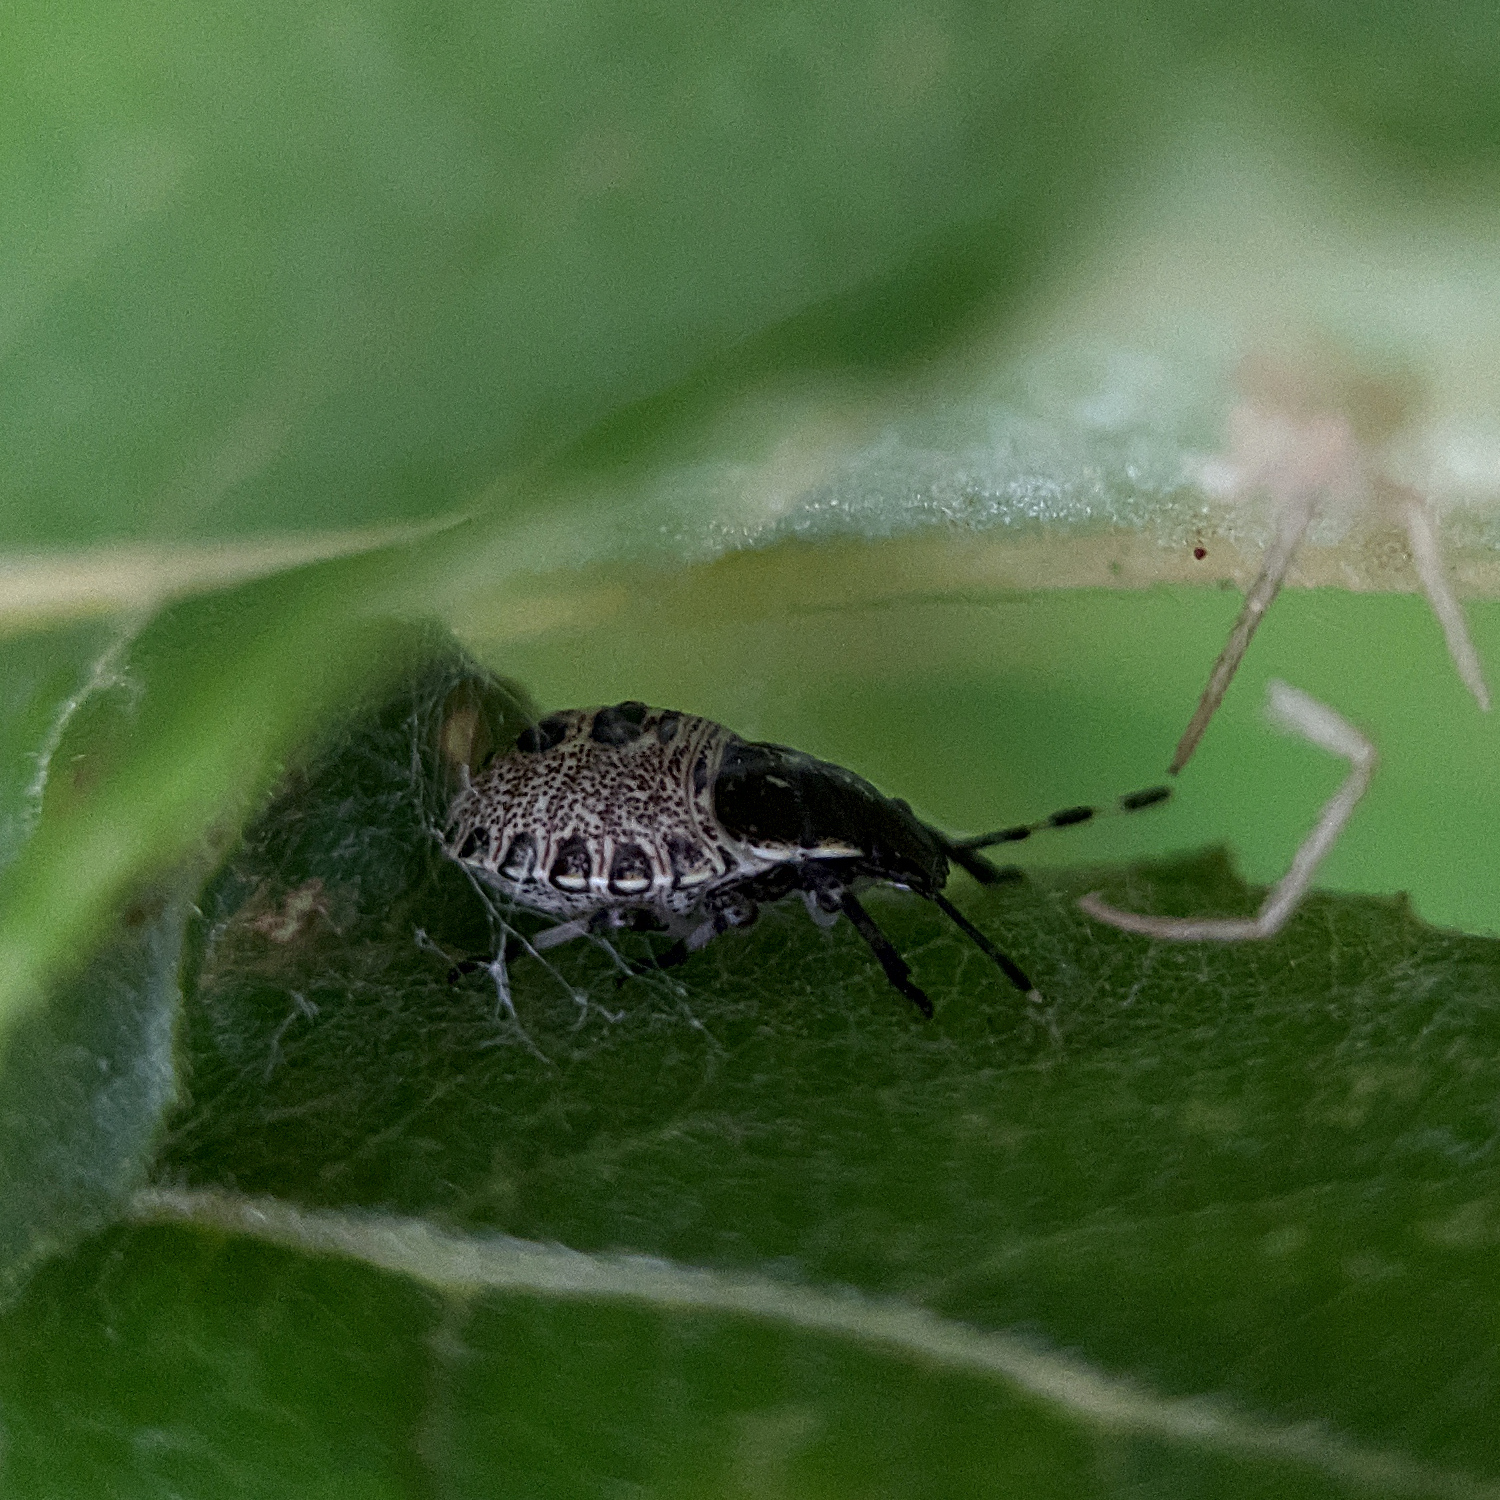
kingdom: Animalia
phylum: Arthropoda
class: Insecta
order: Hemiptera
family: Pentatomidae
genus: Rhaphigaster
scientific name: Rhaphigaster nebulosa
